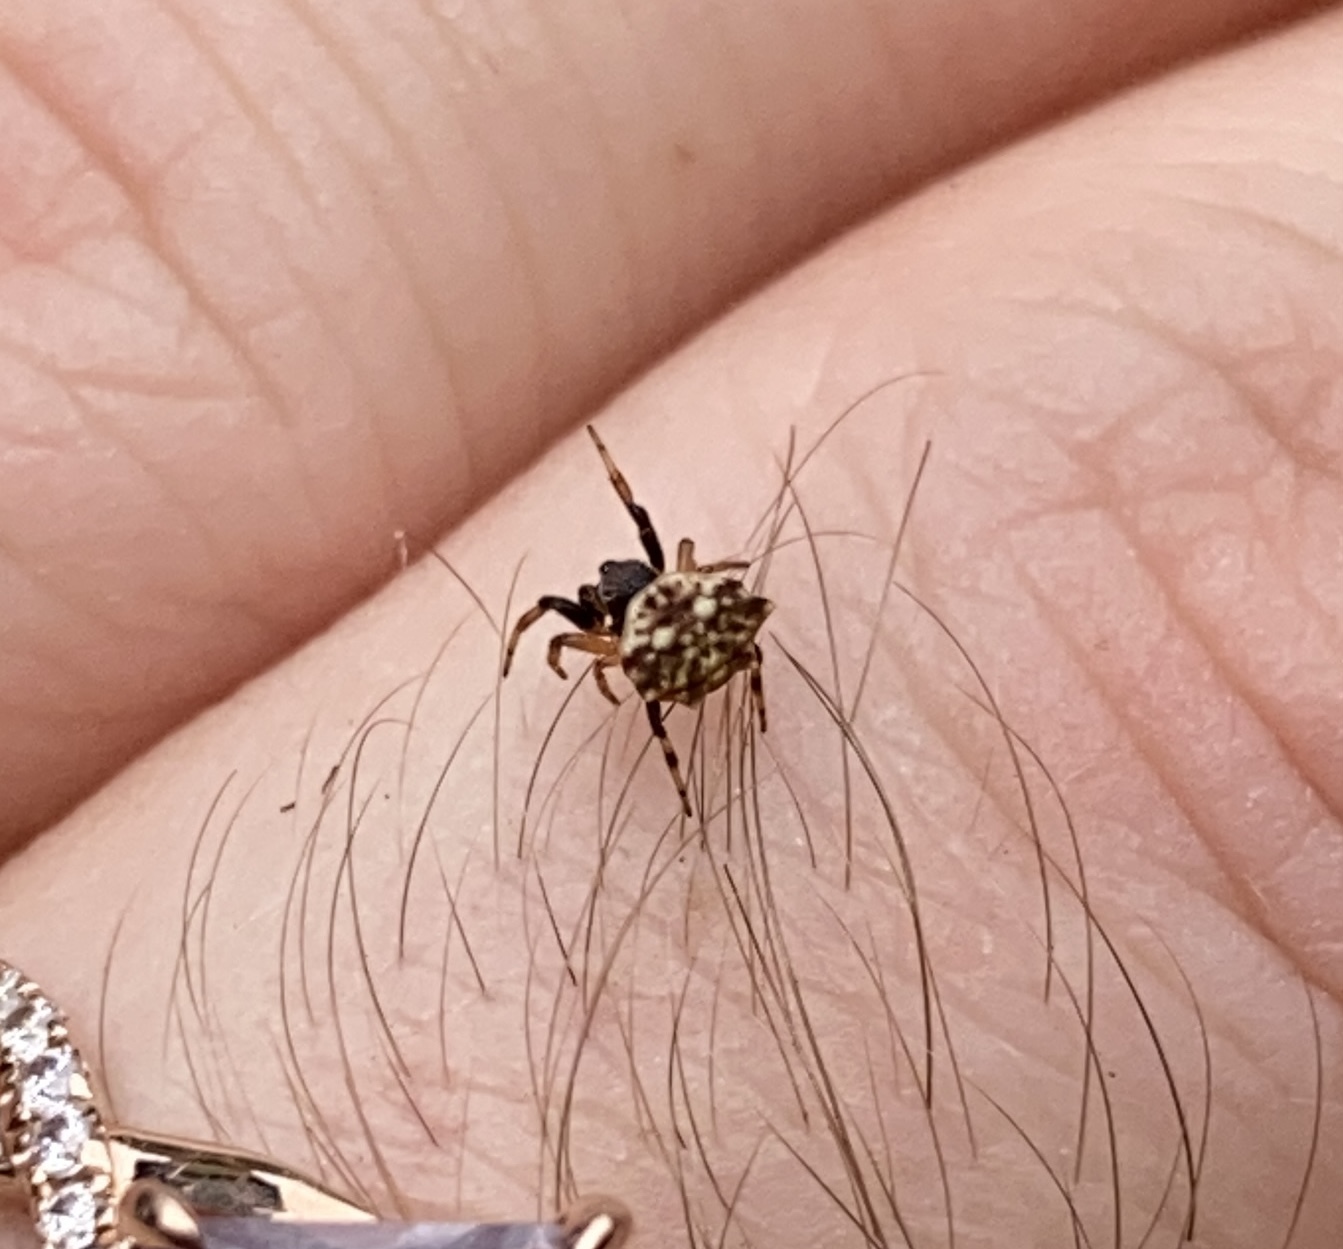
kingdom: Animalia
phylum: Arthropoda
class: Arachnida
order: Araneae
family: Araneidae
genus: Thelacantha
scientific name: Thelacantha brevispina
